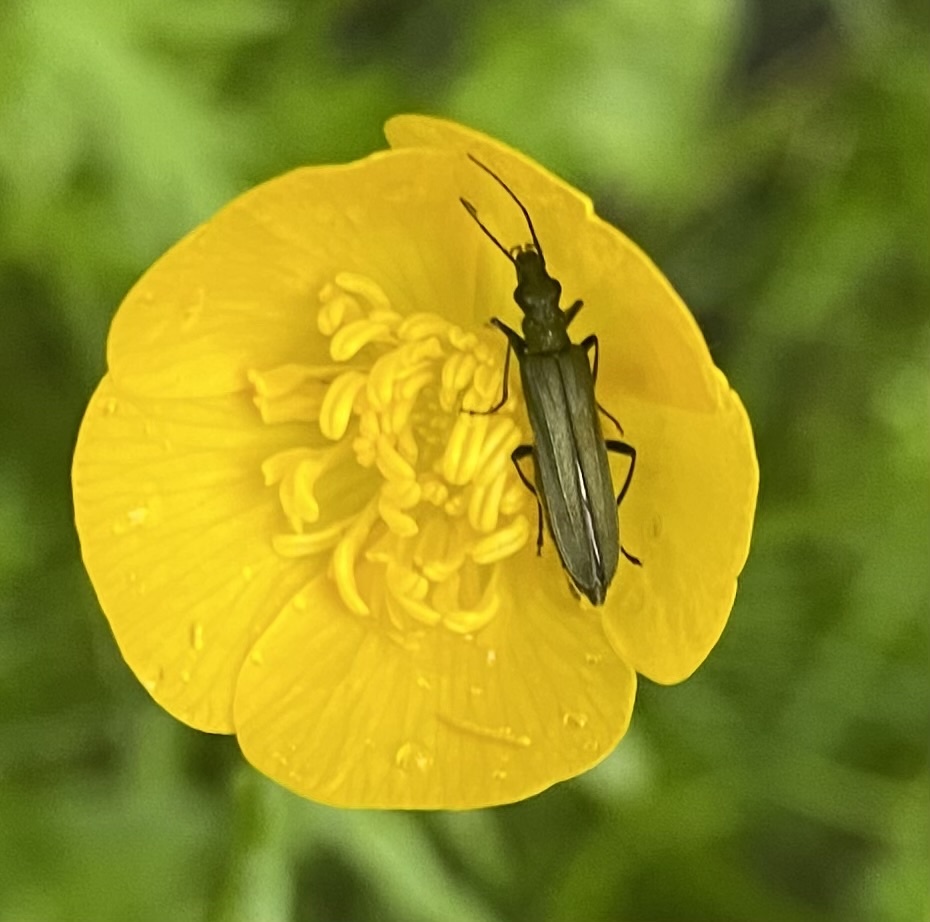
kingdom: Animalia
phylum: Arthropoda
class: Insecta
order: Coleoptera
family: Oedemeridae
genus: Oedemera
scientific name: Oedemera virescens
